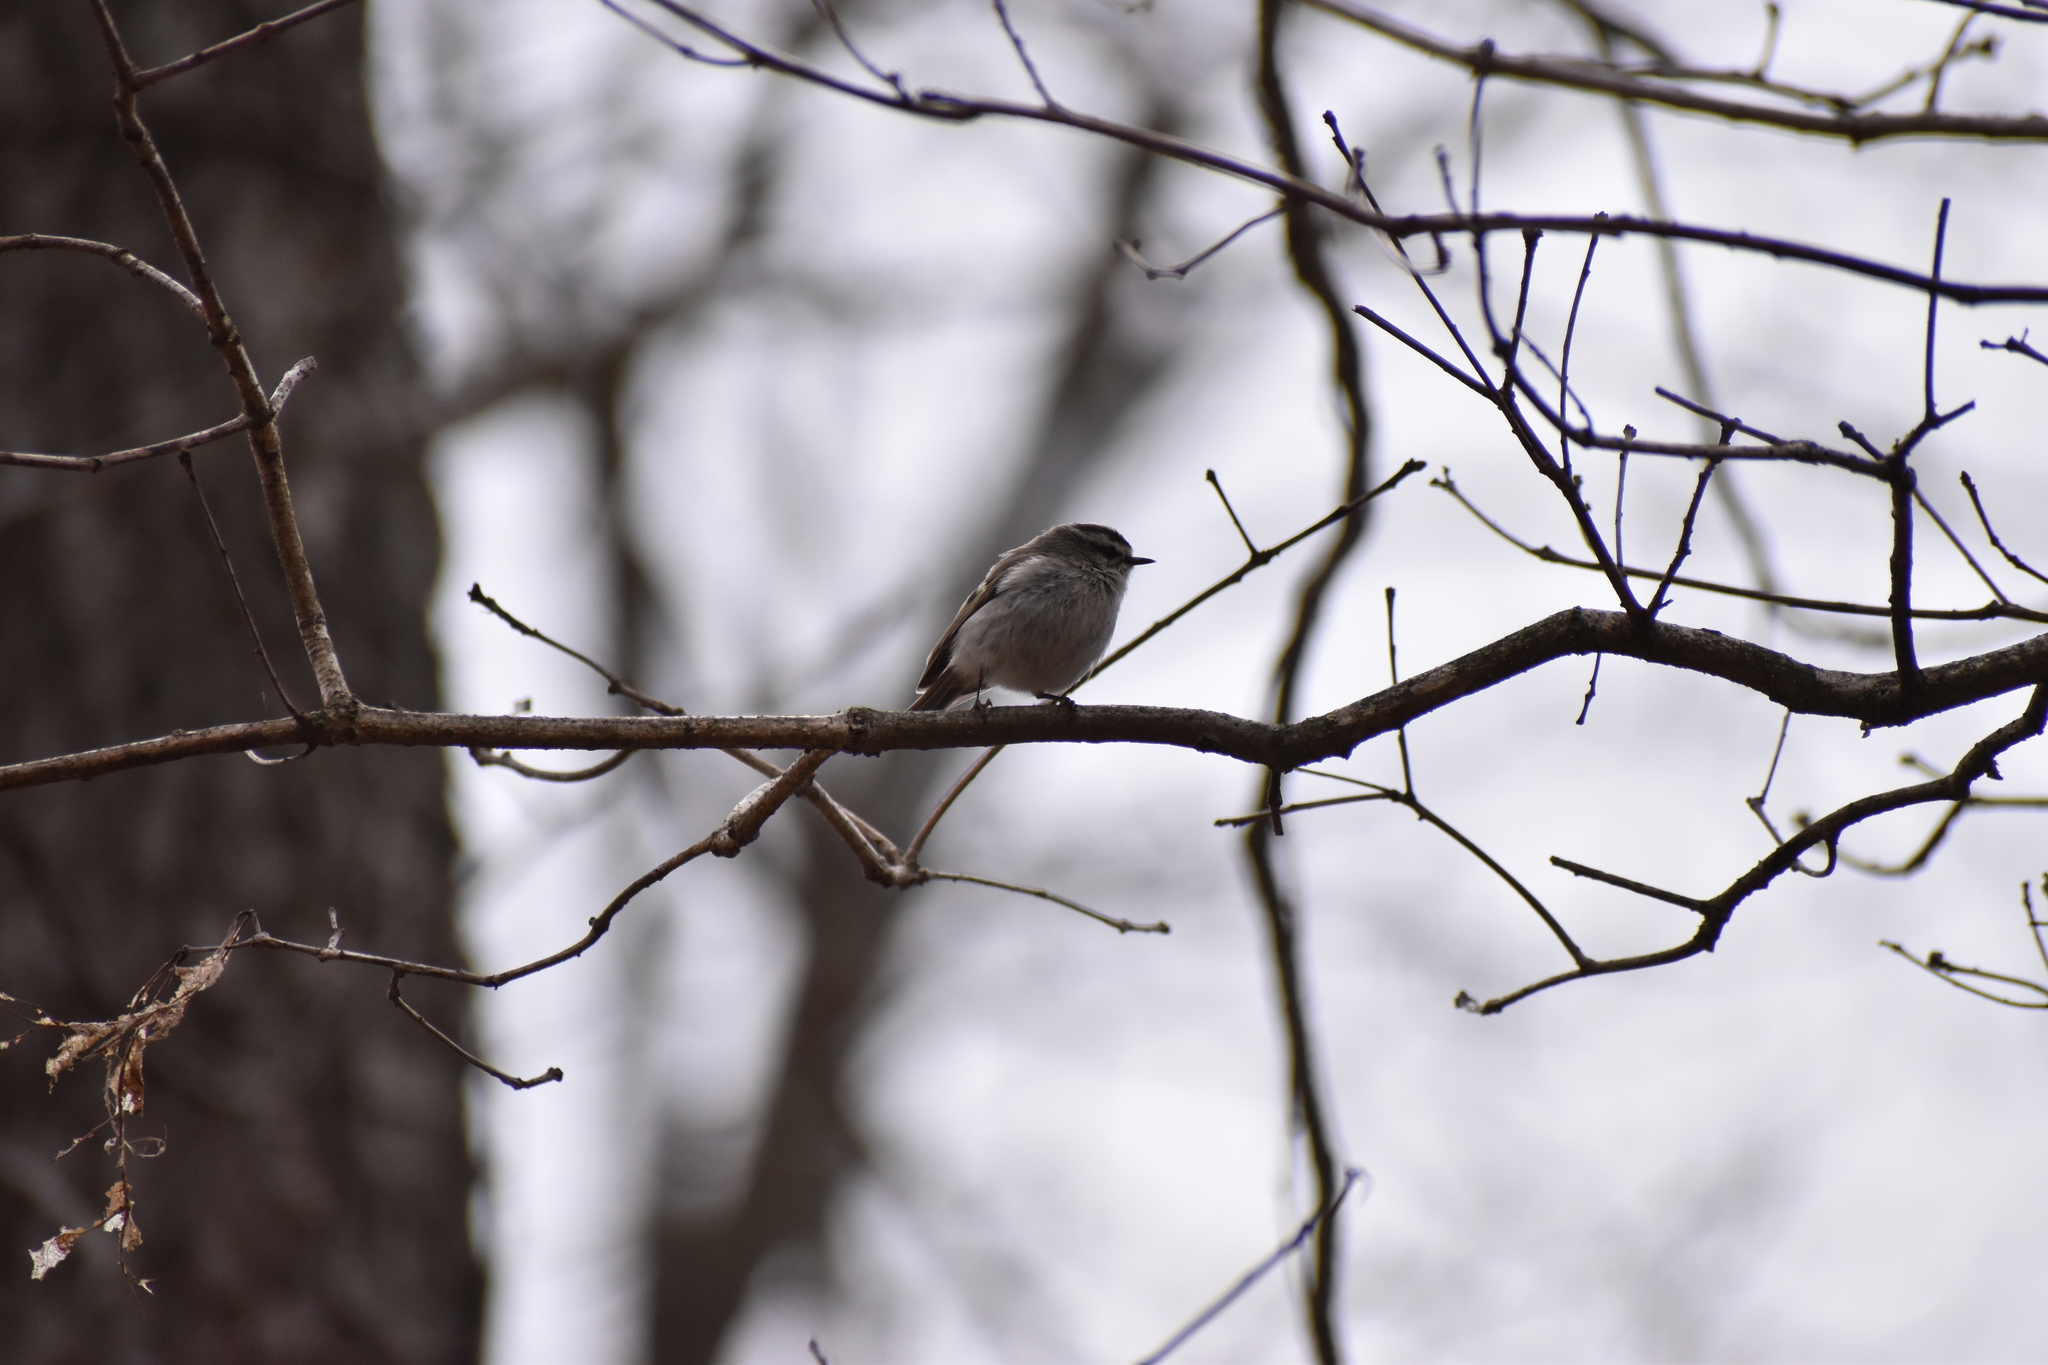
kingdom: Animalia
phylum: Chordata
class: Aves
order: Passeriformes
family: Regulidae
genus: Regulus
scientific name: Regulus satrapa
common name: Golden-crowned kinglet
